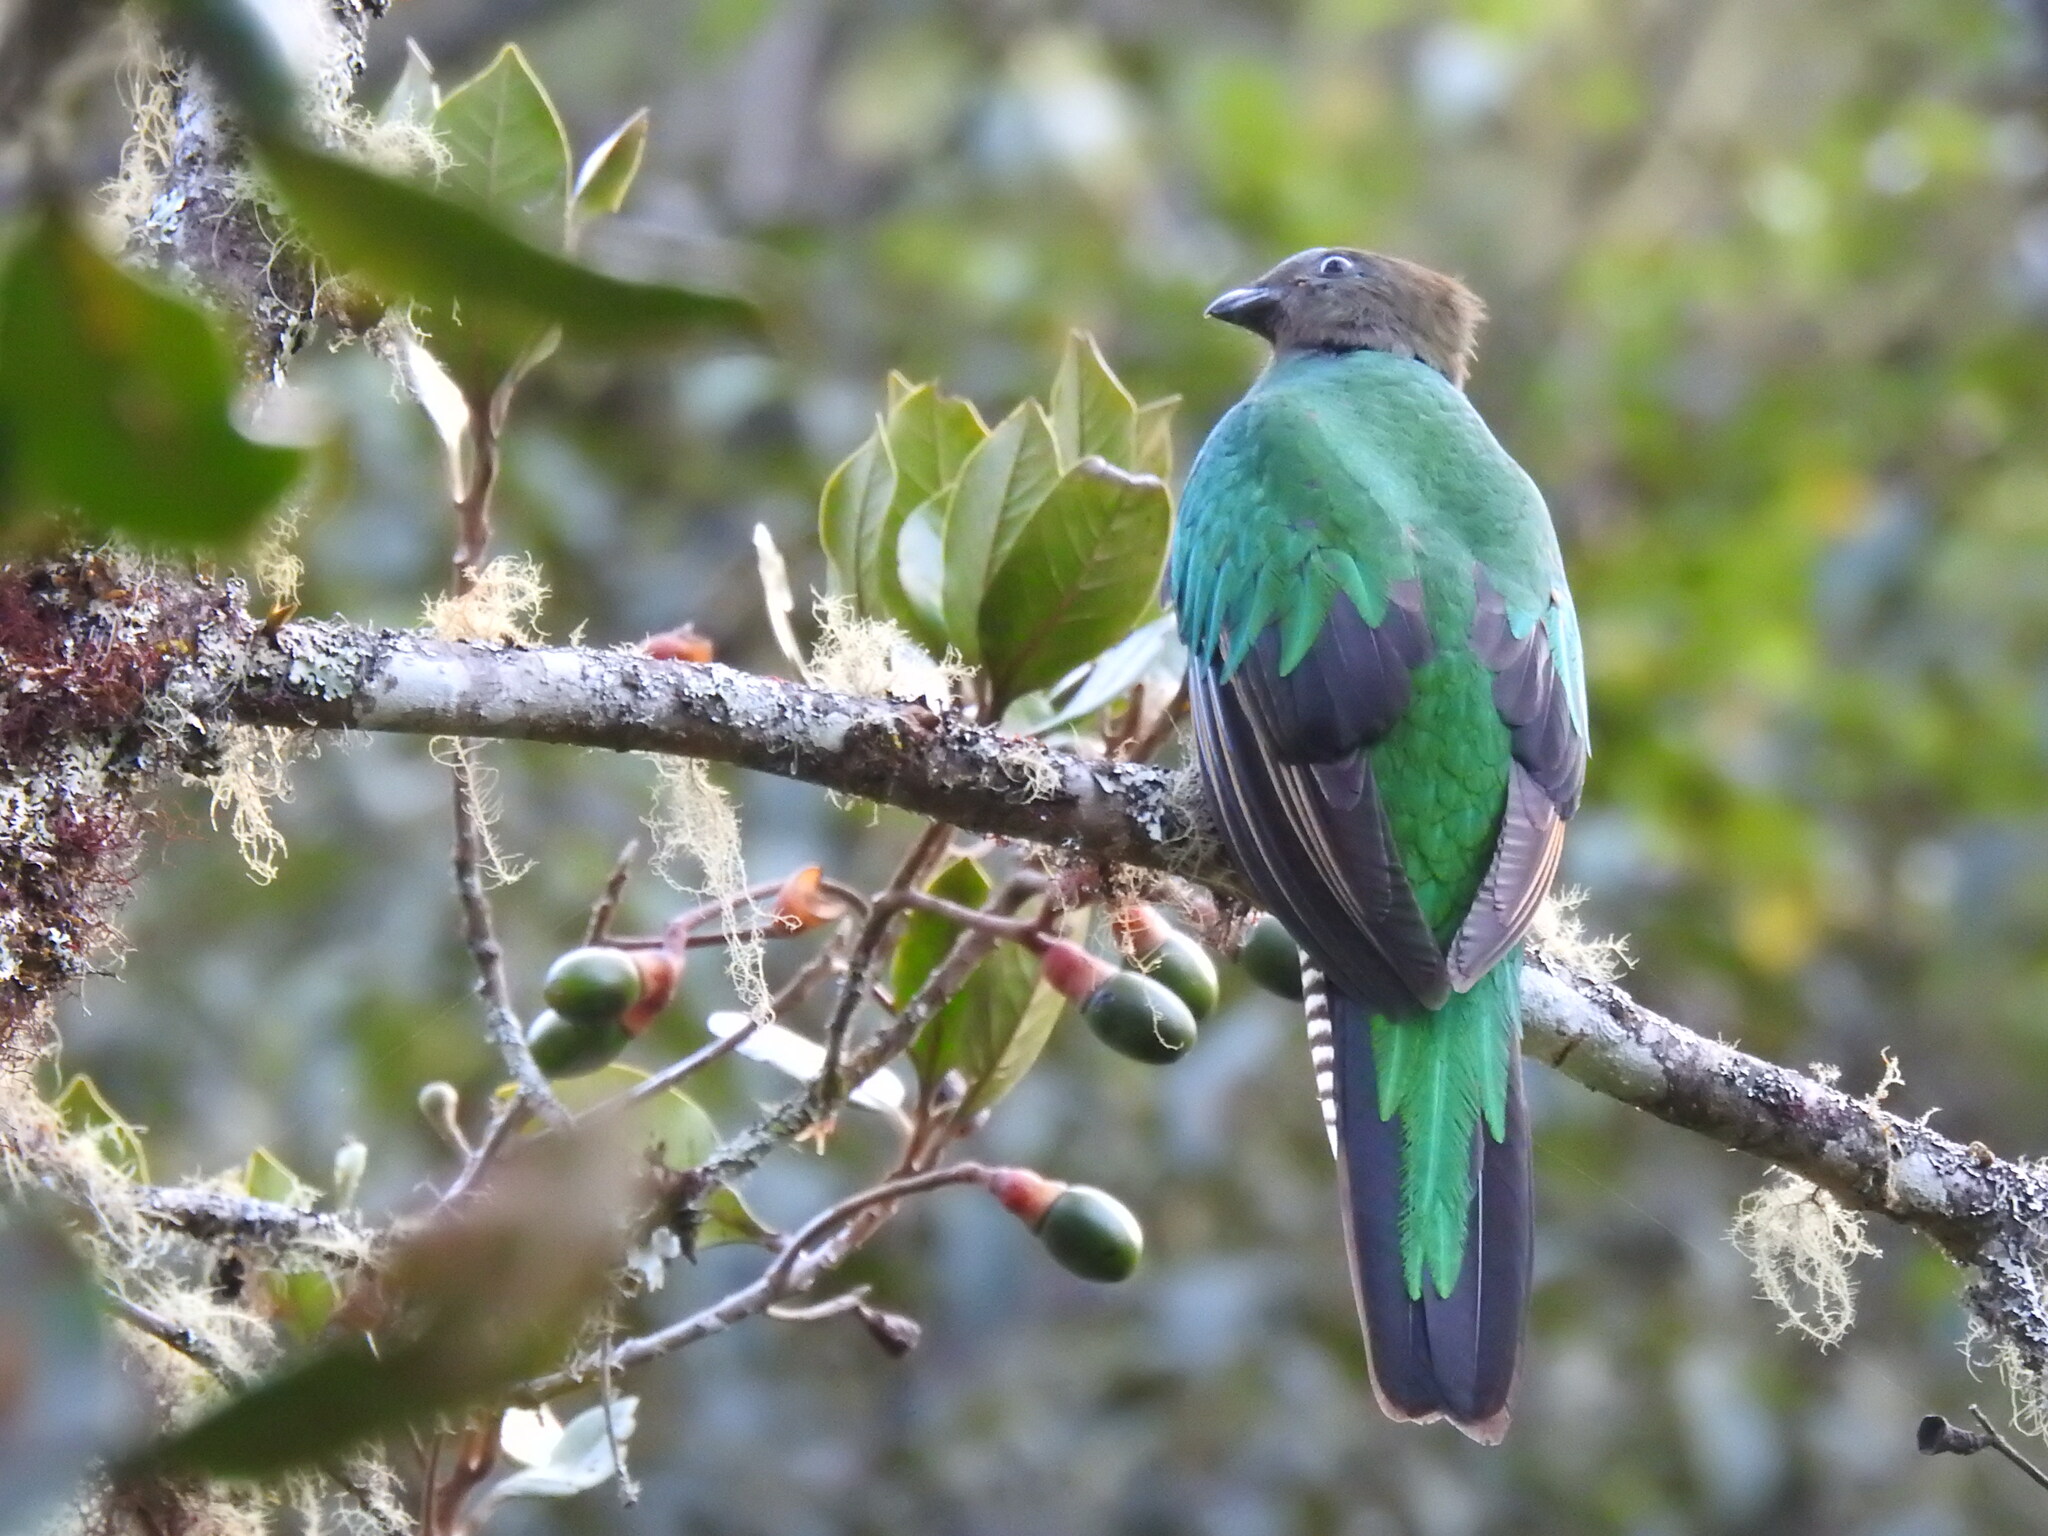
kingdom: Animalia
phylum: Chordata
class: Aves
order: Trogoniformes
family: Trogonidae
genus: Pharomachrus
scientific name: Pharomachrus mocinno
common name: Resplendent quetzal
